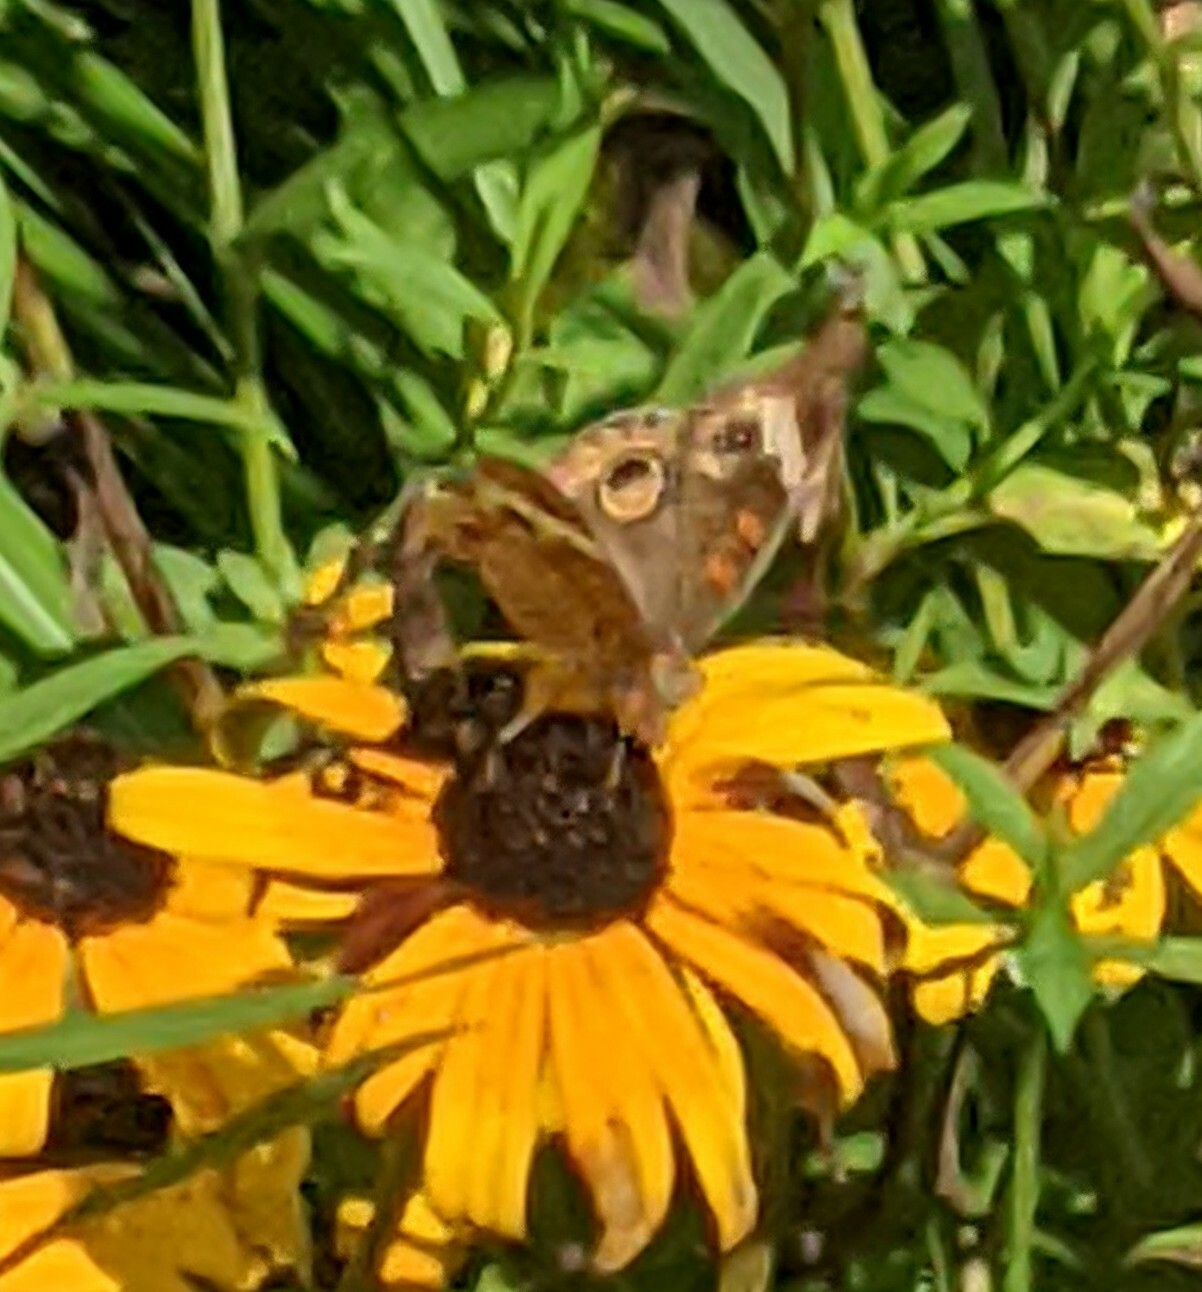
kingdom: Animalia
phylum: Arthropoda
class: Insecta
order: Lepidoptera
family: Nymphalidae
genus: Junonia
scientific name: Junonia coenia
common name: Common buckeye
